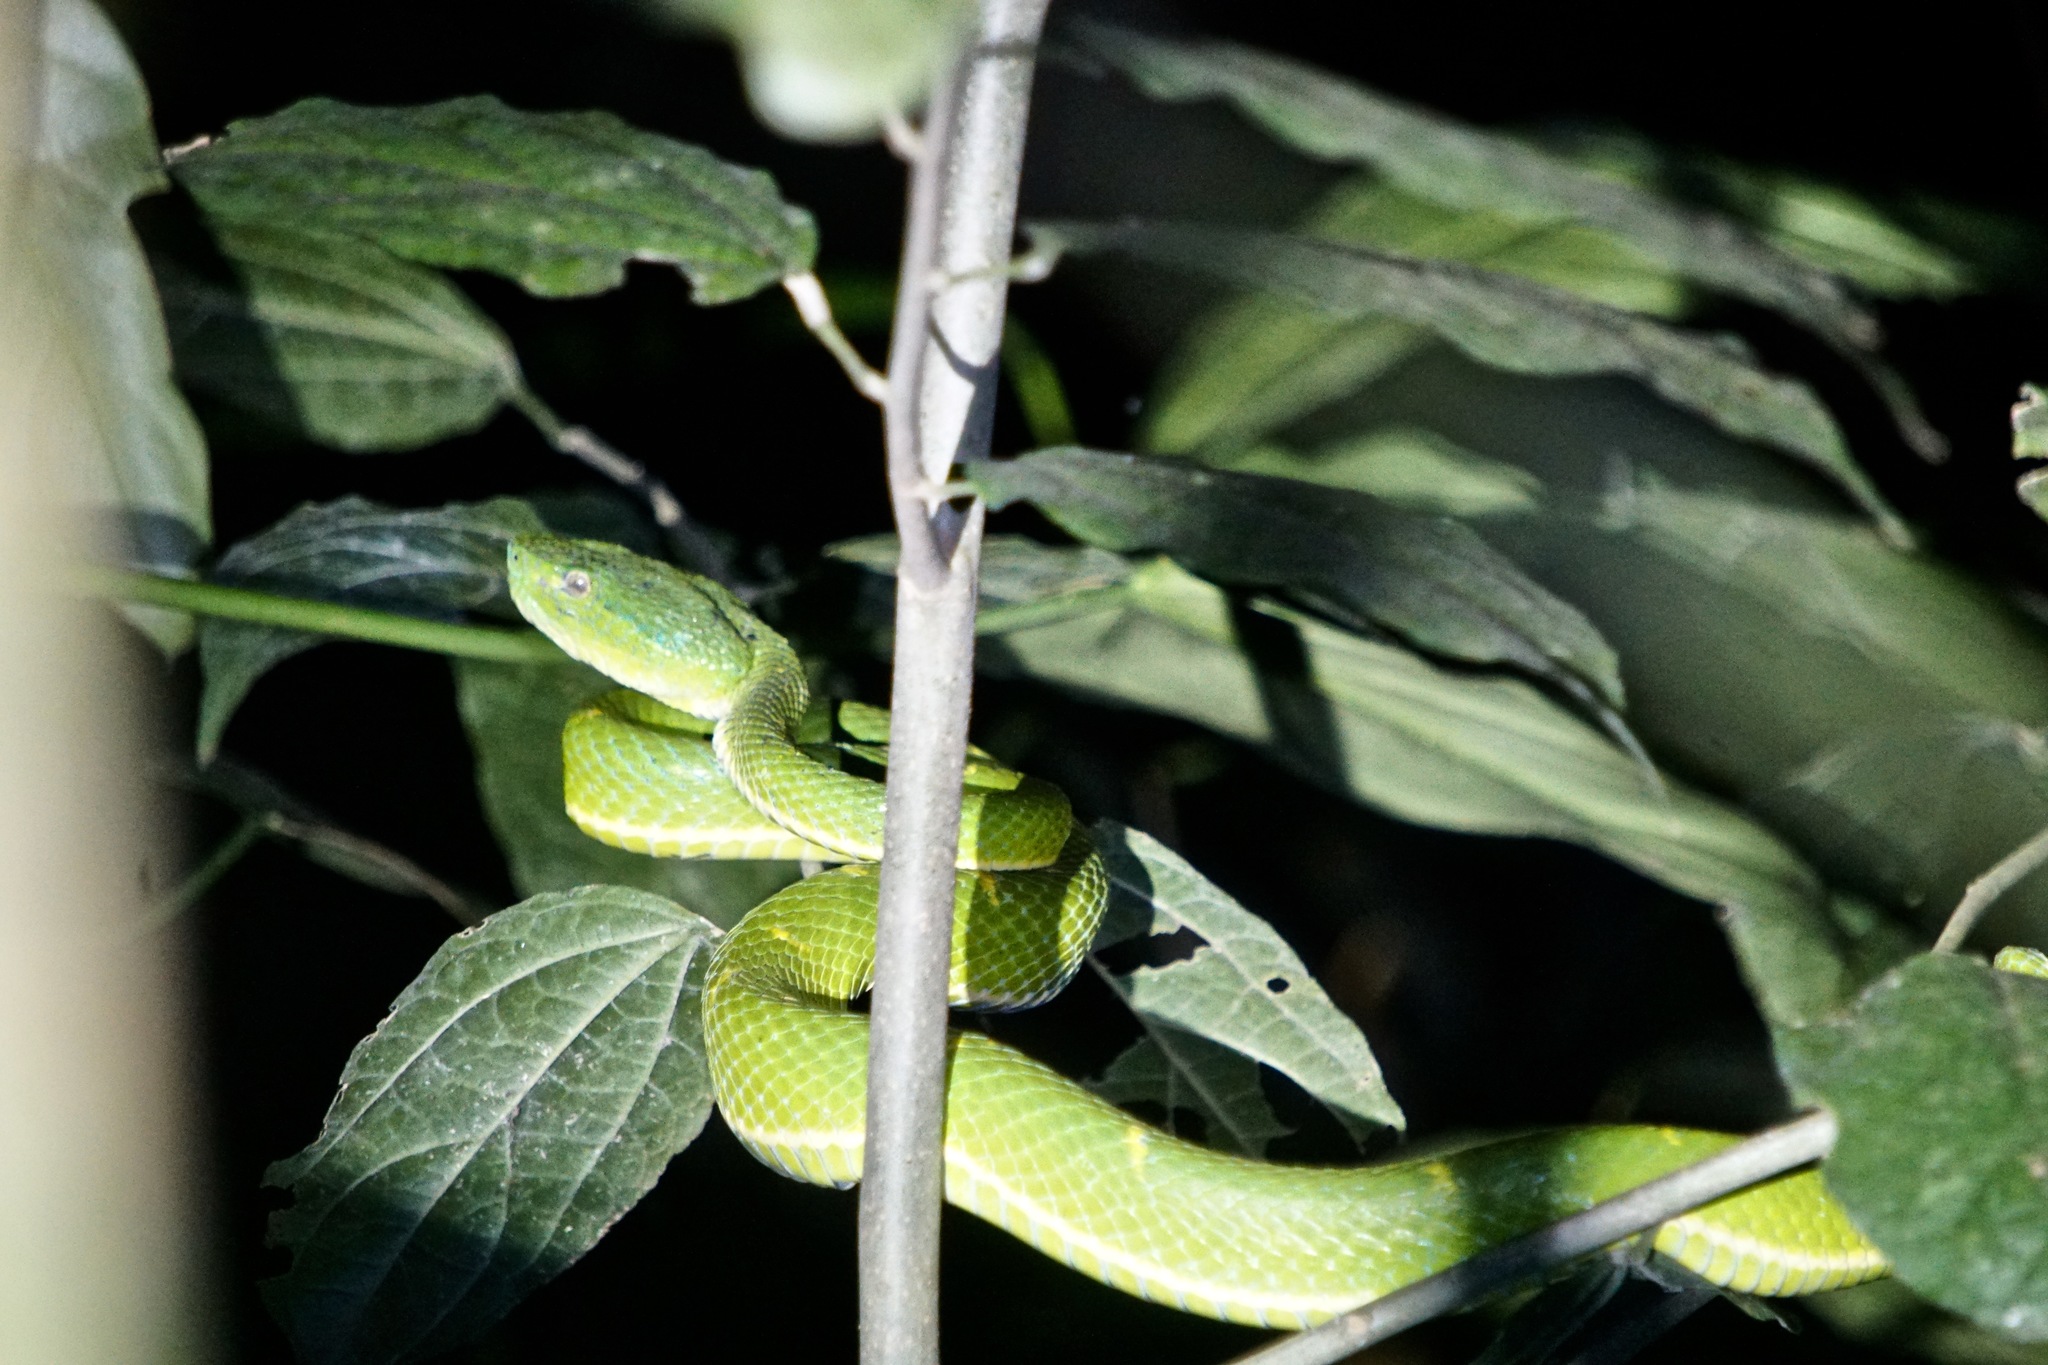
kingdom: Animalia
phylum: Chordata
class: Squamata
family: Viperidae
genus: Bothriechis
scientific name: Bothriechis lateralis
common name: Coffee palm viper
